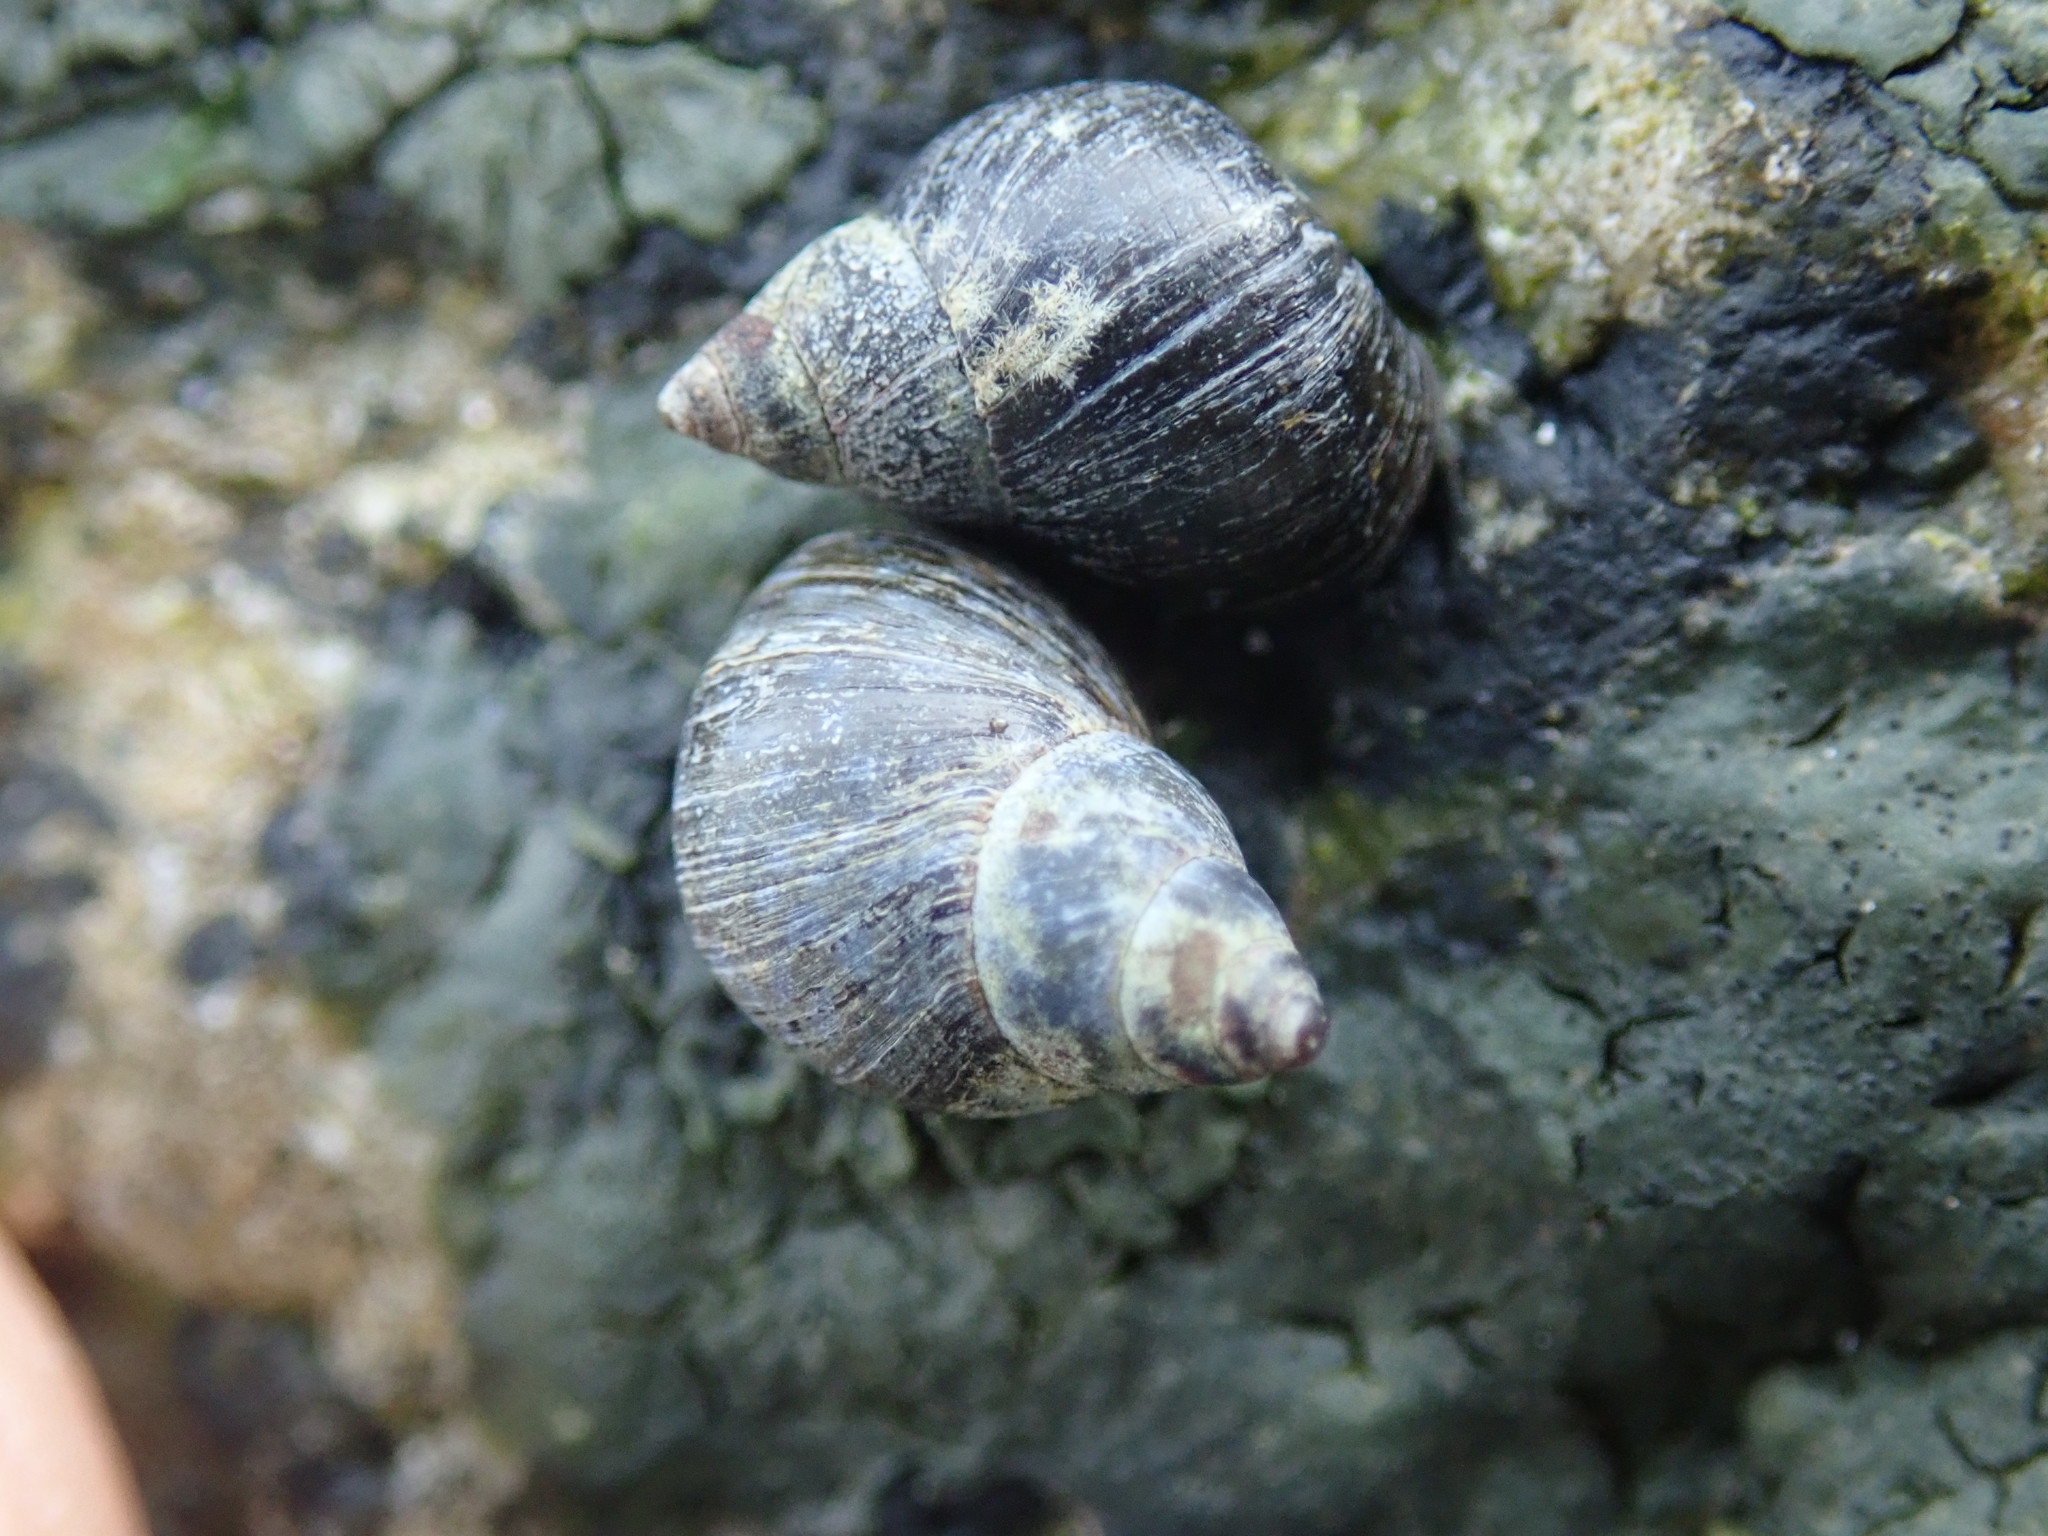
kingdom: Animalia
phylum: Mollusca
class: Gastropoda
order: Littorinimorpha
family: Littorinidae
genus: Littorina
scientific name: Littorina scutulata
